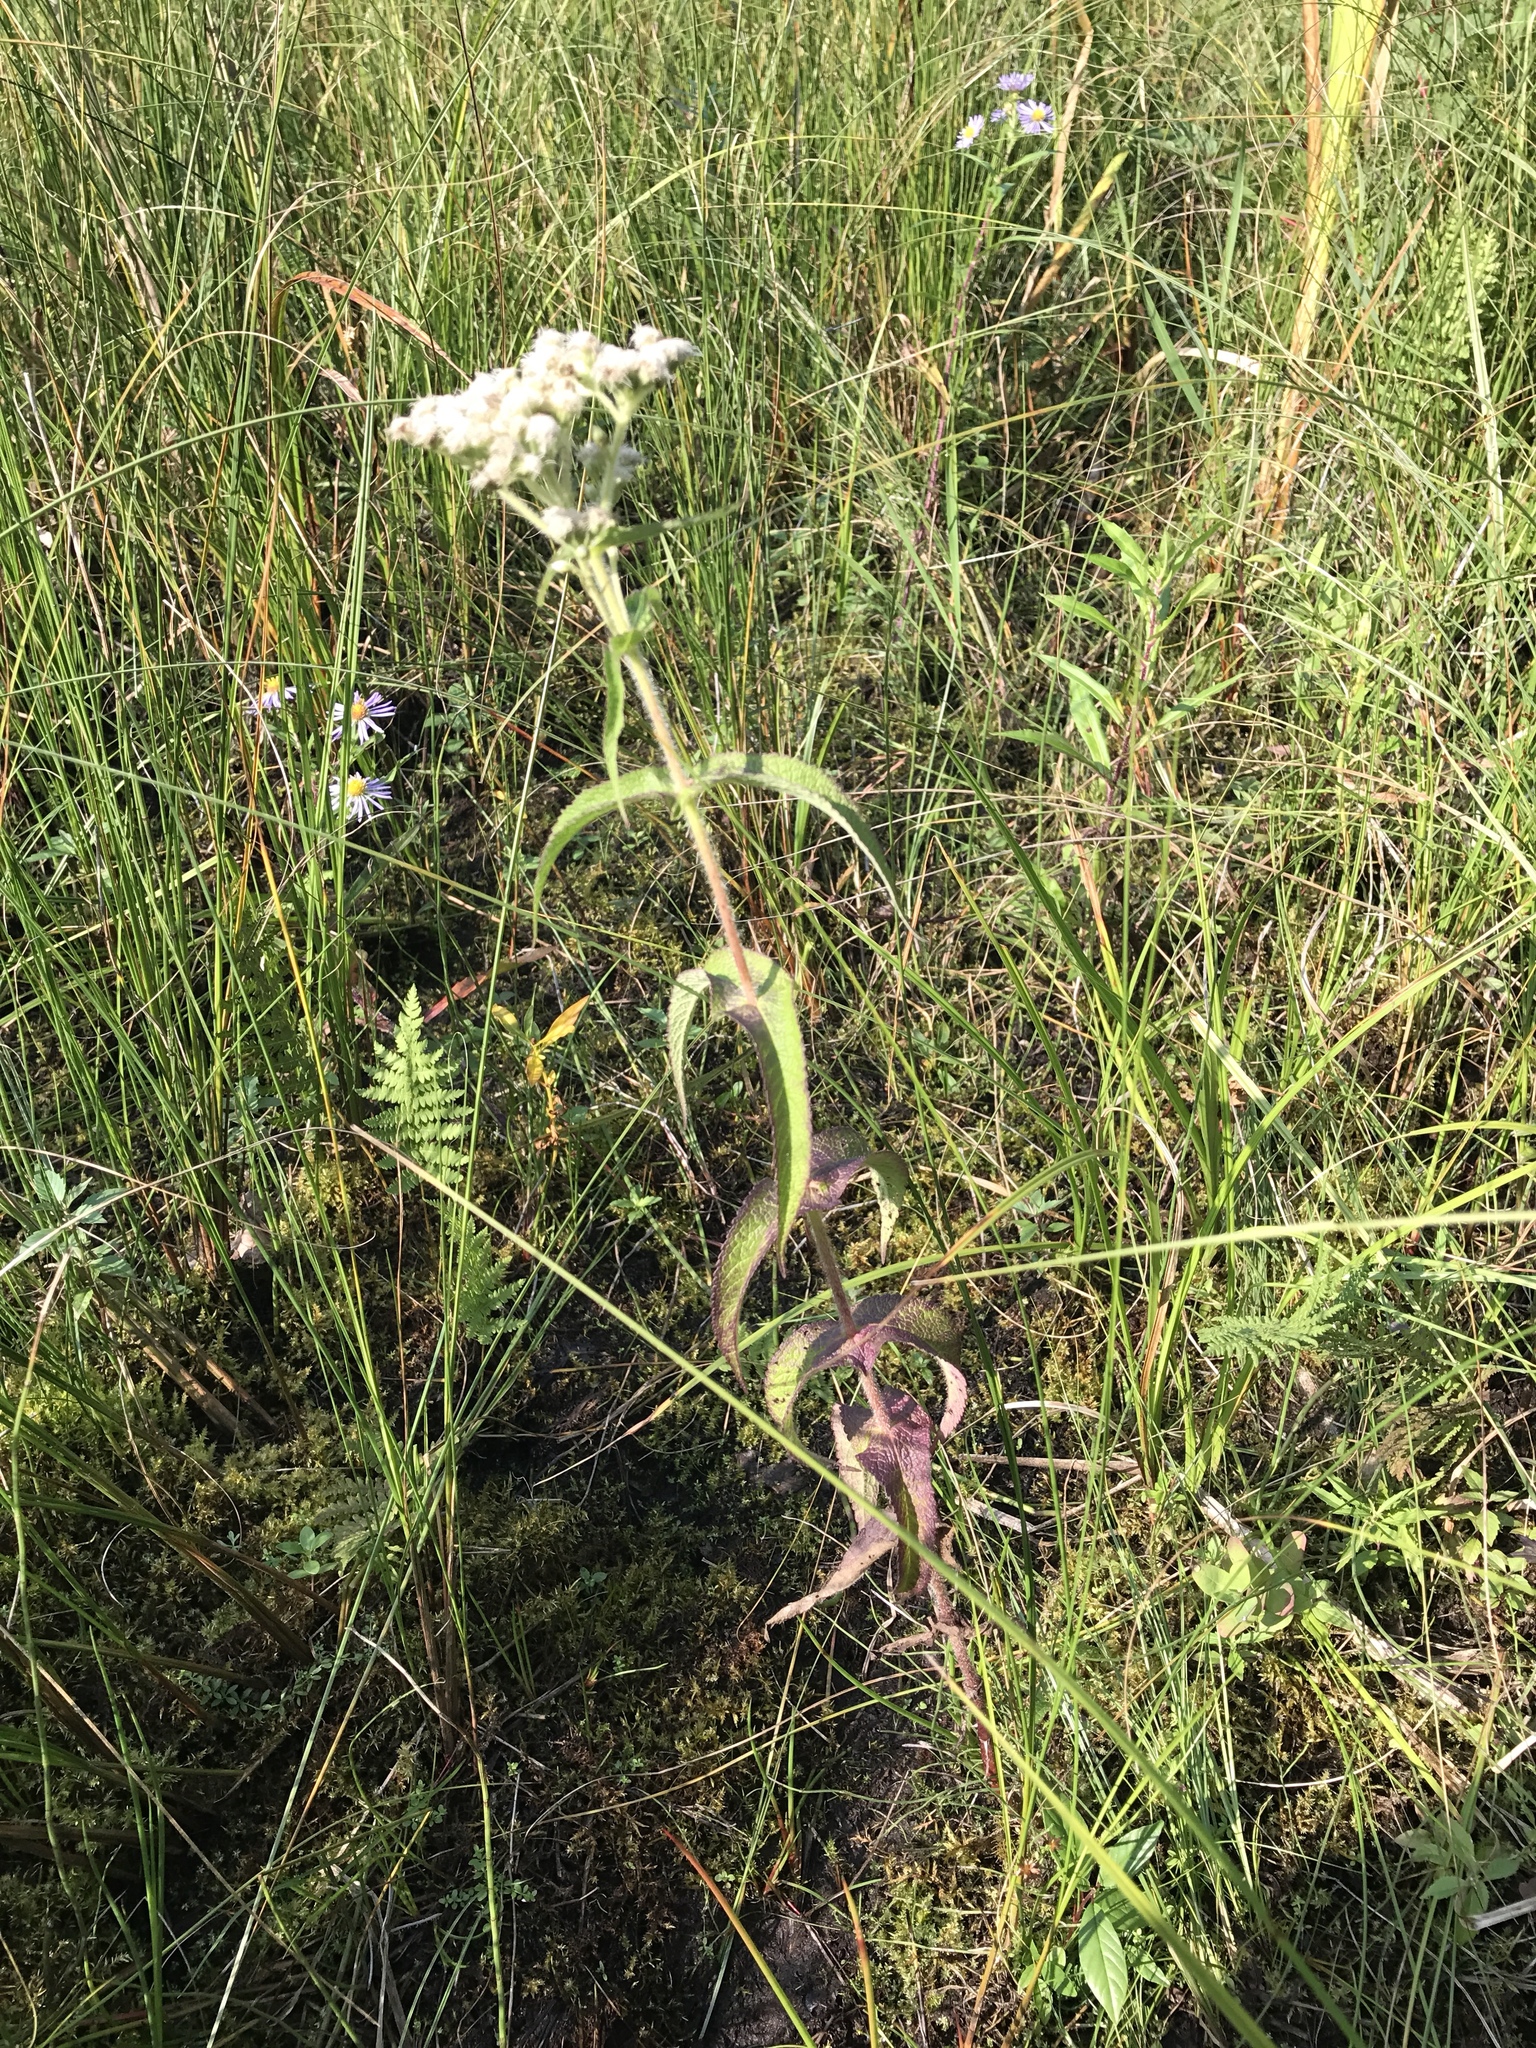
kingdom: Plantae
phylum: Tracheophyta
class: Magnoliopsida
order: Asterales
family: Asteraceae
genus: Eupatorium
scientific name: Eupatorium perfoliatum
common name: Boneset
